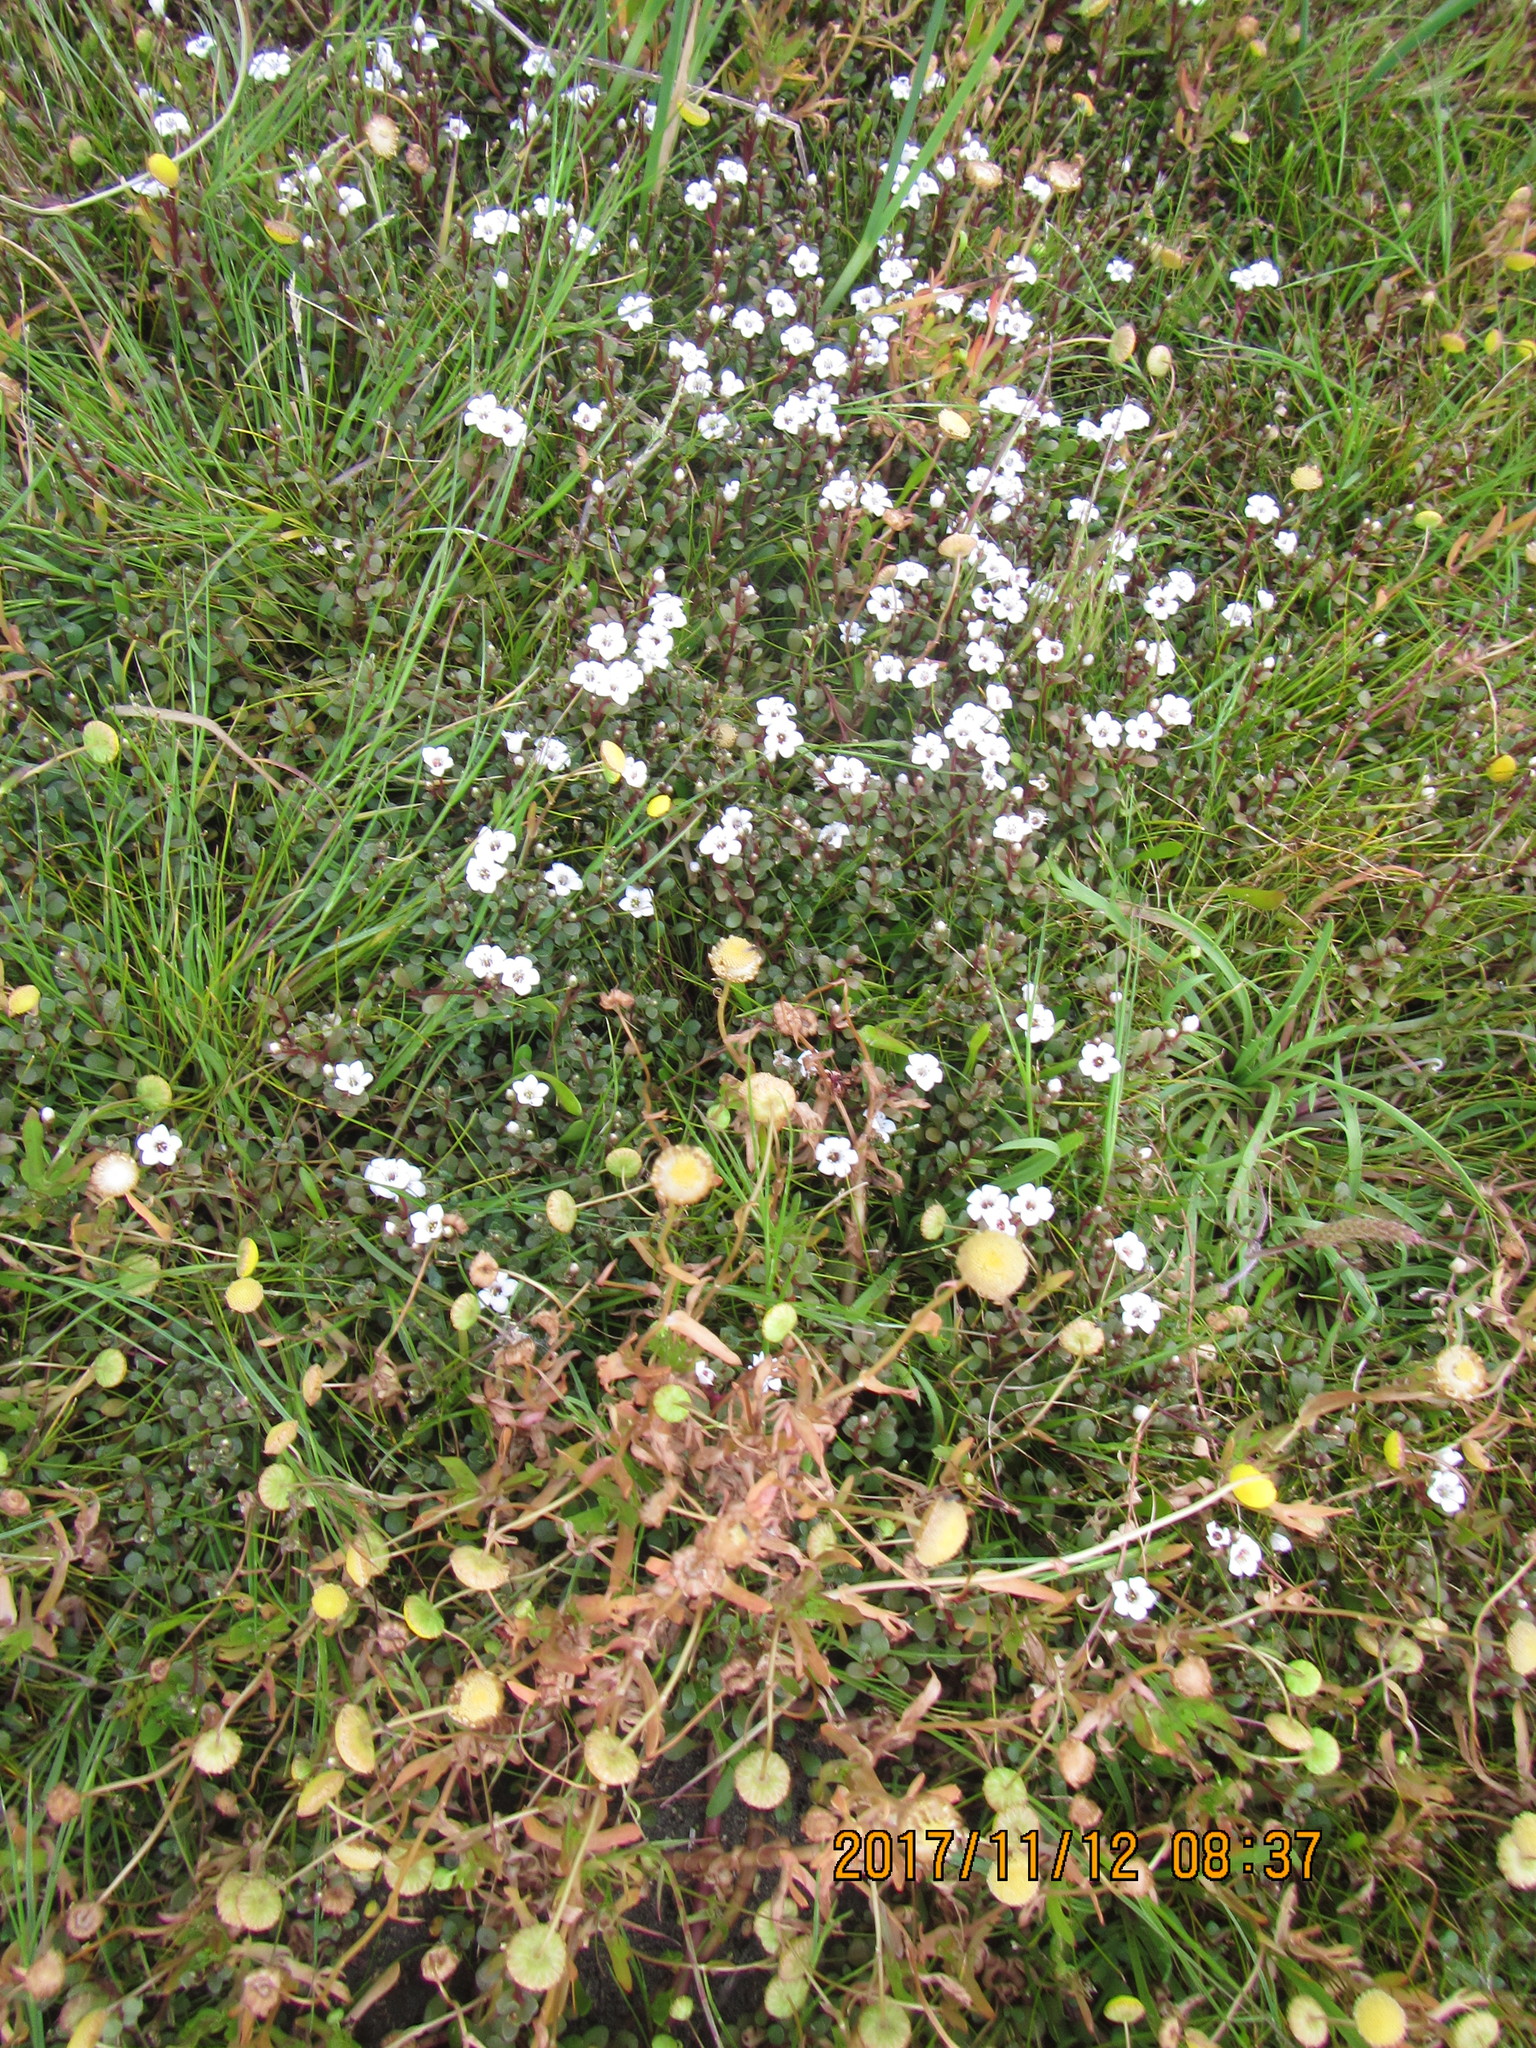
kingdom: Plantae
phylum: Tracheophyta
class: Magnoliopsida
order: Ericales
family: Primulaceae
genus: Samolus
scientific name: Samolus repens
